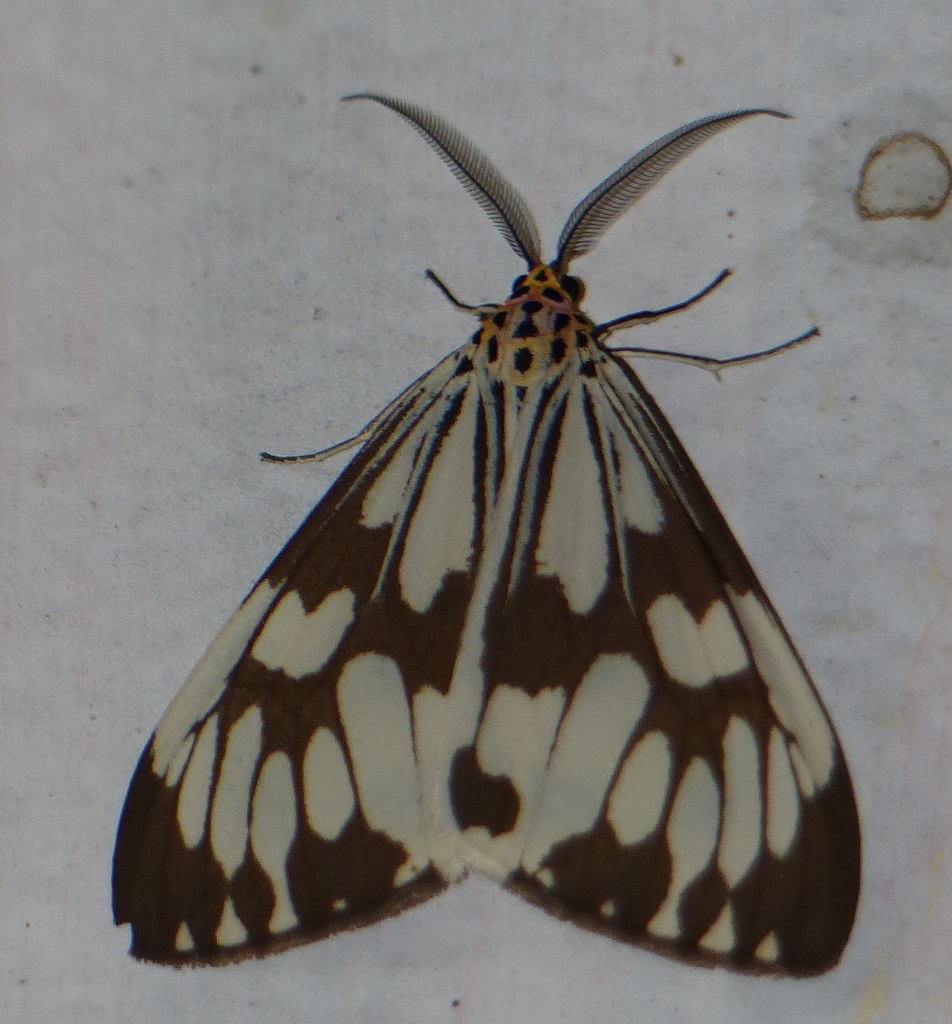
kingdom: Animalia
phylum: Arthropoda
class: Insecta
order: Lepidoptera
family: Erebidae
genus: Nyctemera
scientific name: Nyctemera adversata
